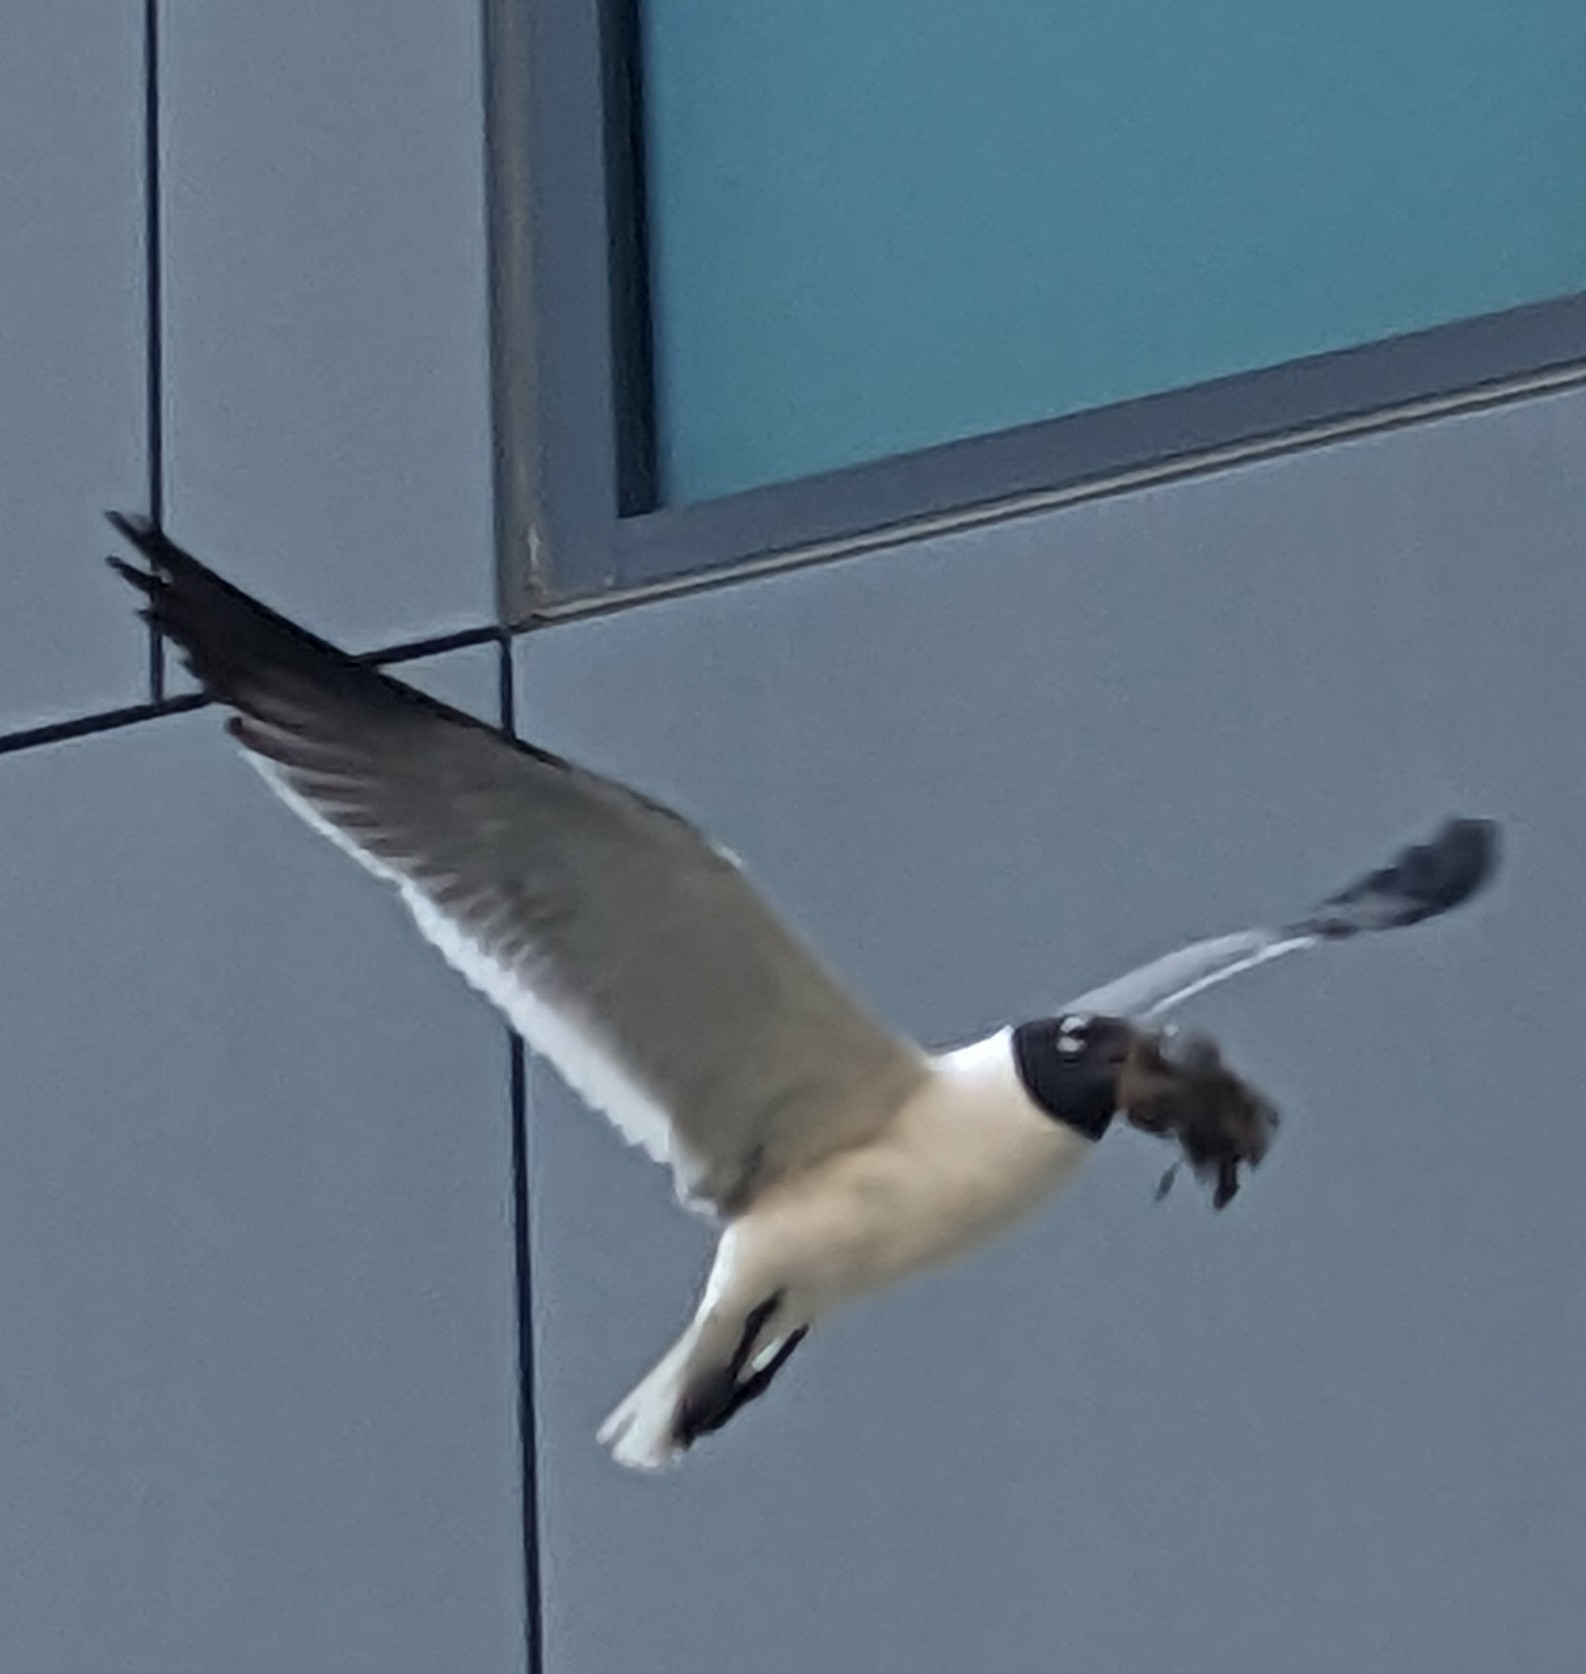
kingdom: Animalia
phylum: Chordata
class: Aves
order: Charadriiformes
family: Laridae
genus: Leucophaeus
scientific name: Leucophaeus atricilla
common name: Laughing gull
